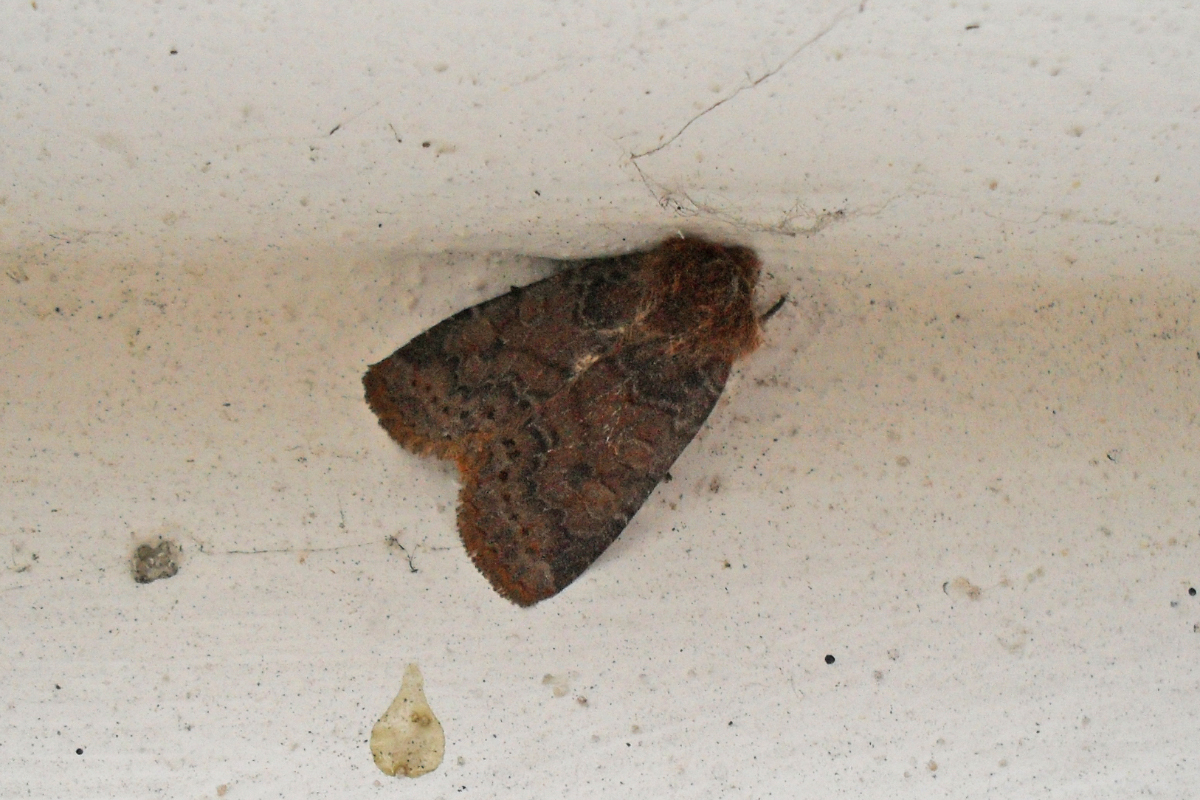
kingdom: Animalia
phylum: Arthropoda
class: Insecta
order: Lepidoptera
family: Noctuidae
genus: Conistra
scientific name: Conistra vaccinii
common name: Chestnut
